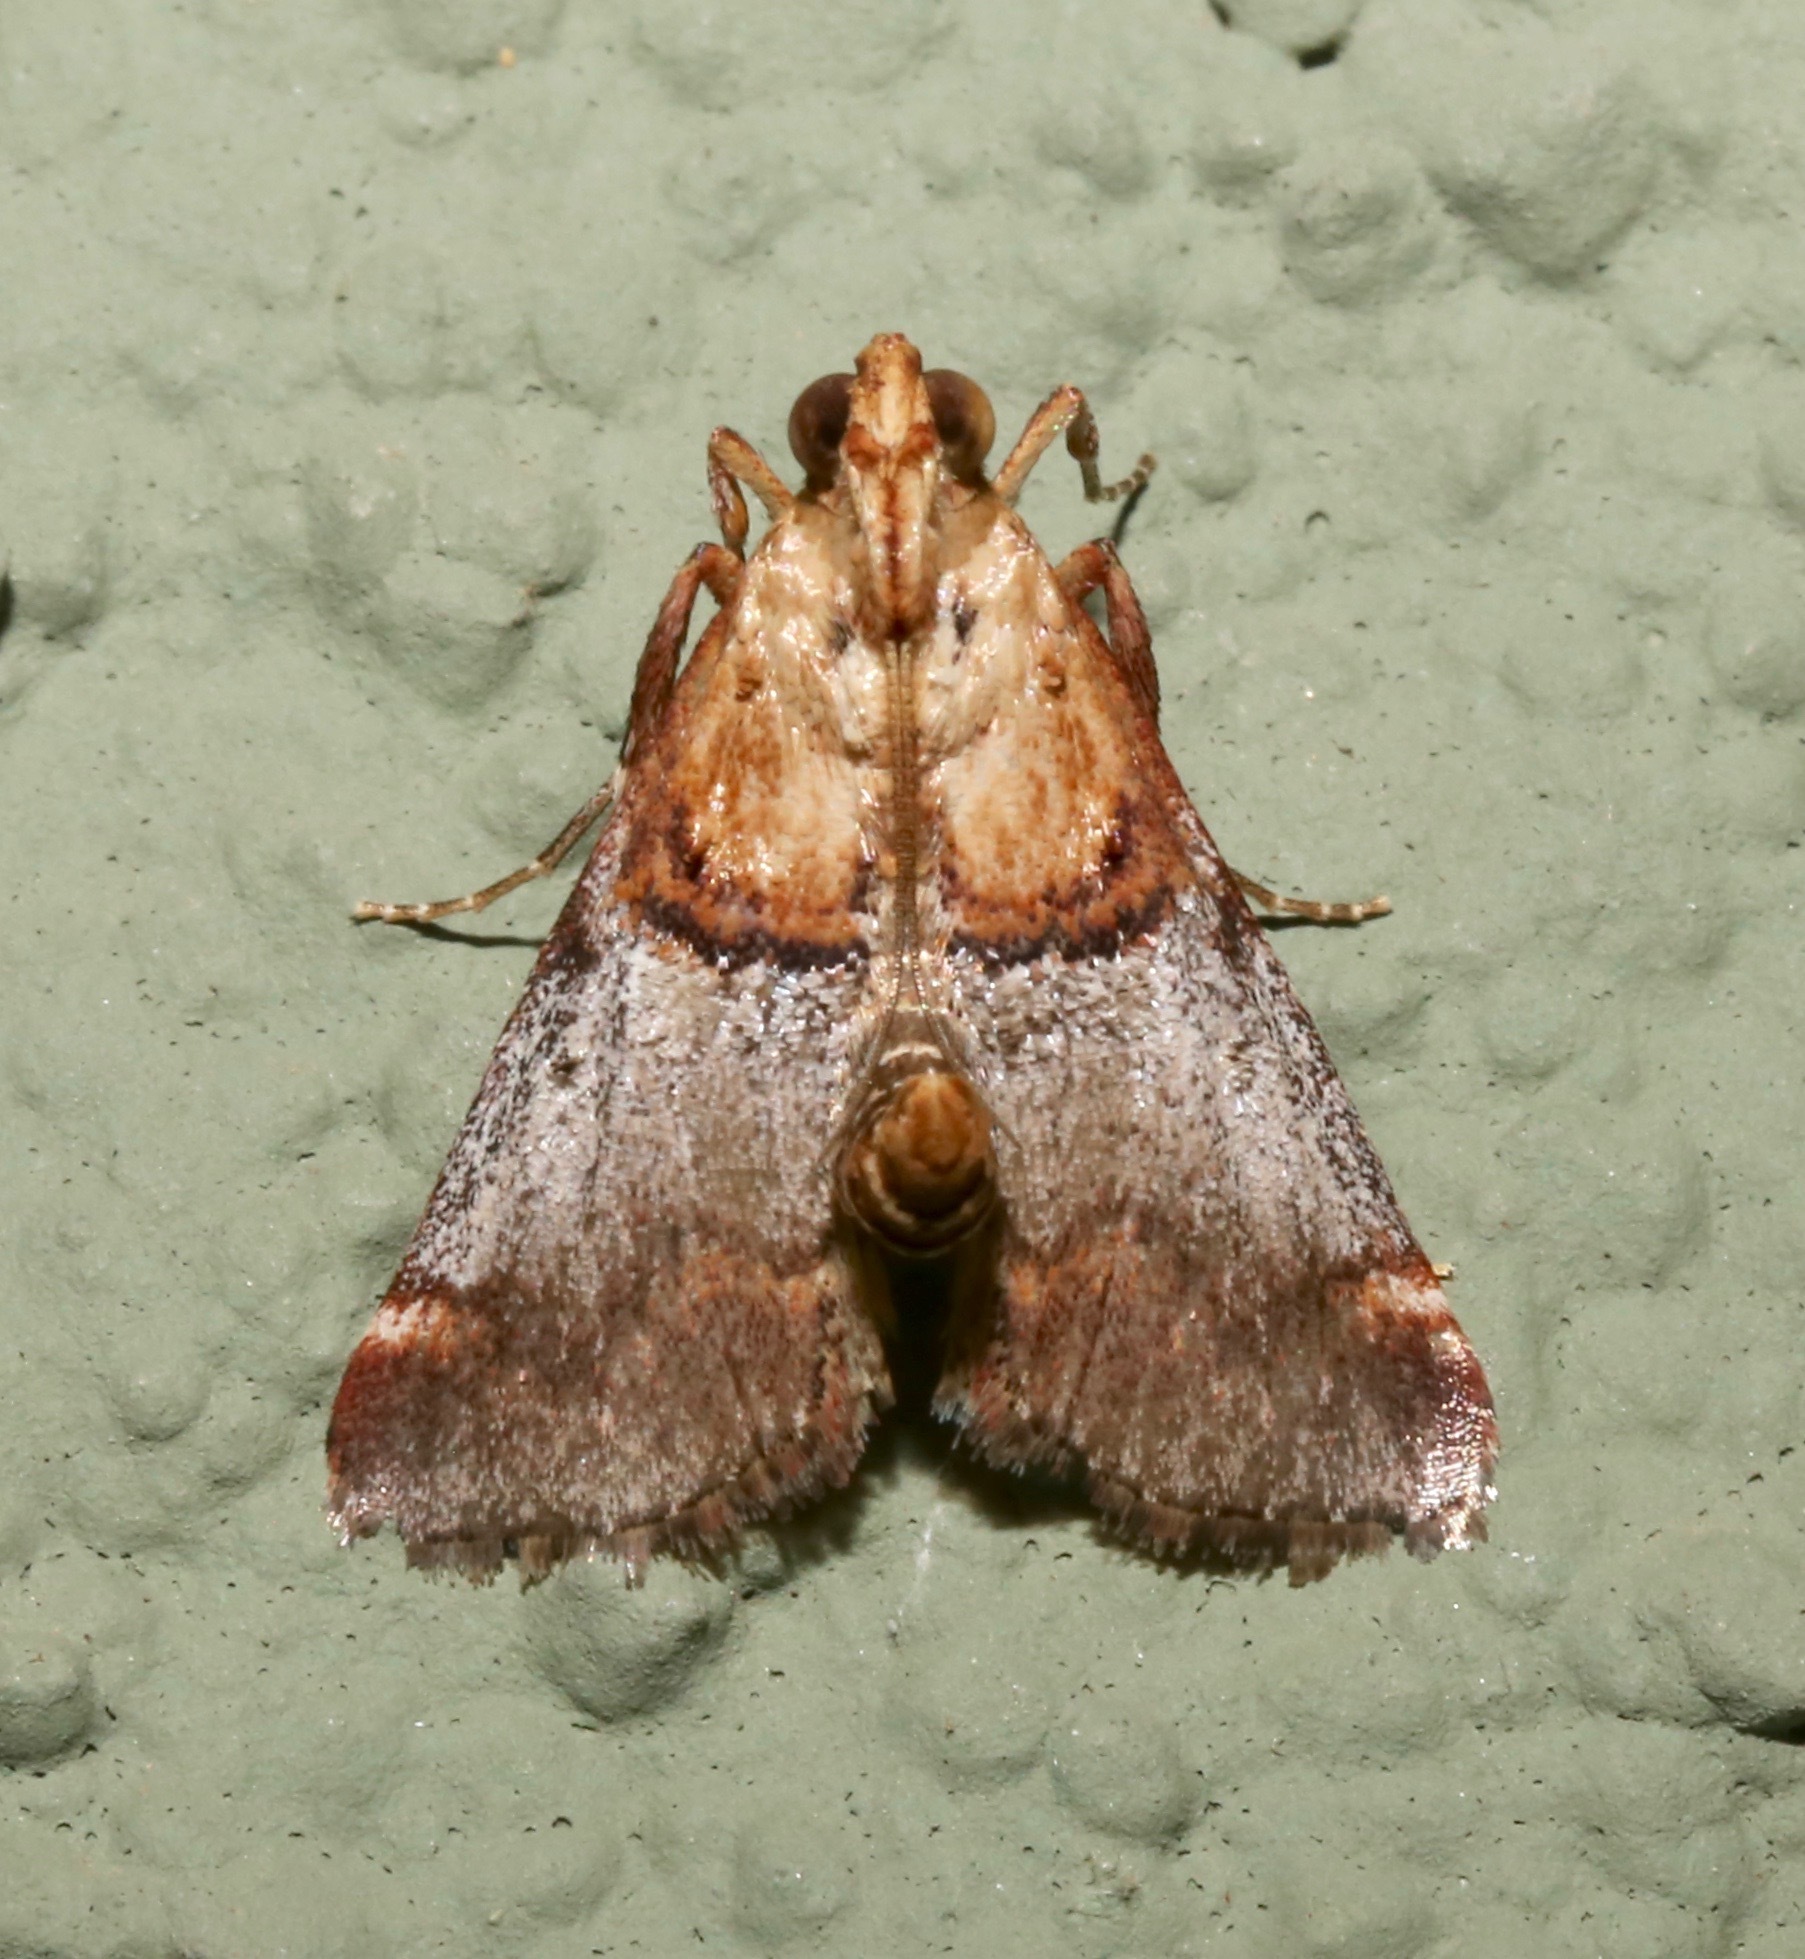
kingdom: Animalia
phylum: Arthropoda
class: Insecta
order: Lepidoptera
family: Pyralidae
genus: Cacozelia
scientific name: Cacozelia basiochrealis
